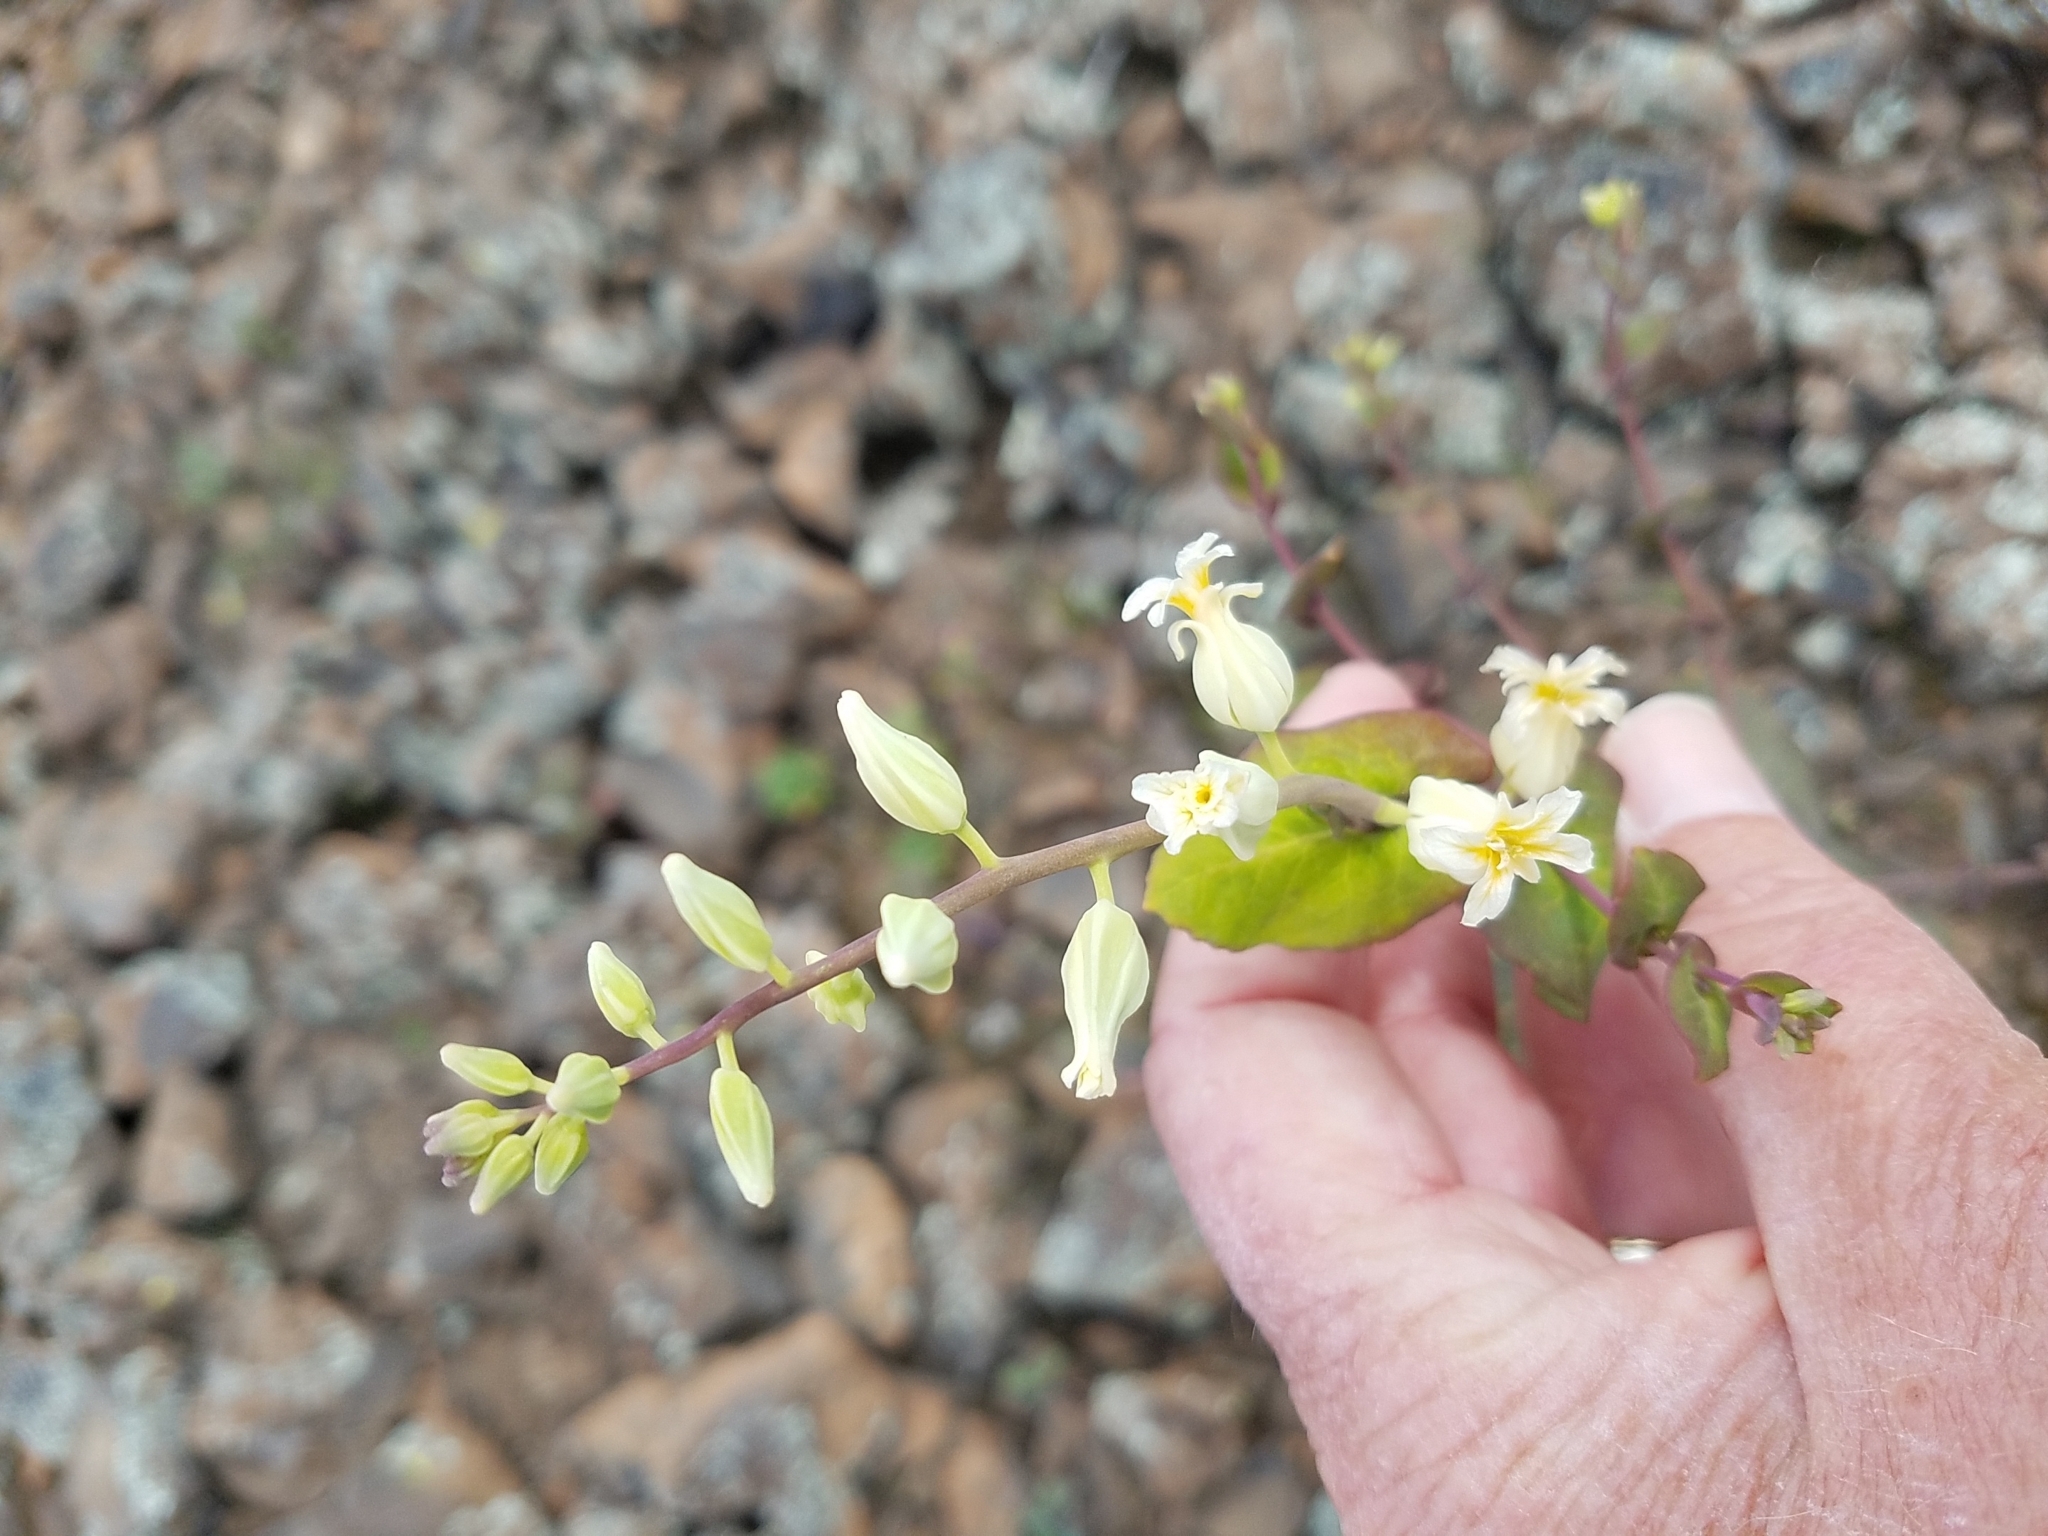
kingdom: Plantae
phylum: Tracheophyta
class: Magnoliopsida
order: Brassicales
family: Brassicaceae
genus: Streptanthus
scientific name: Streptanthus tortuosus
